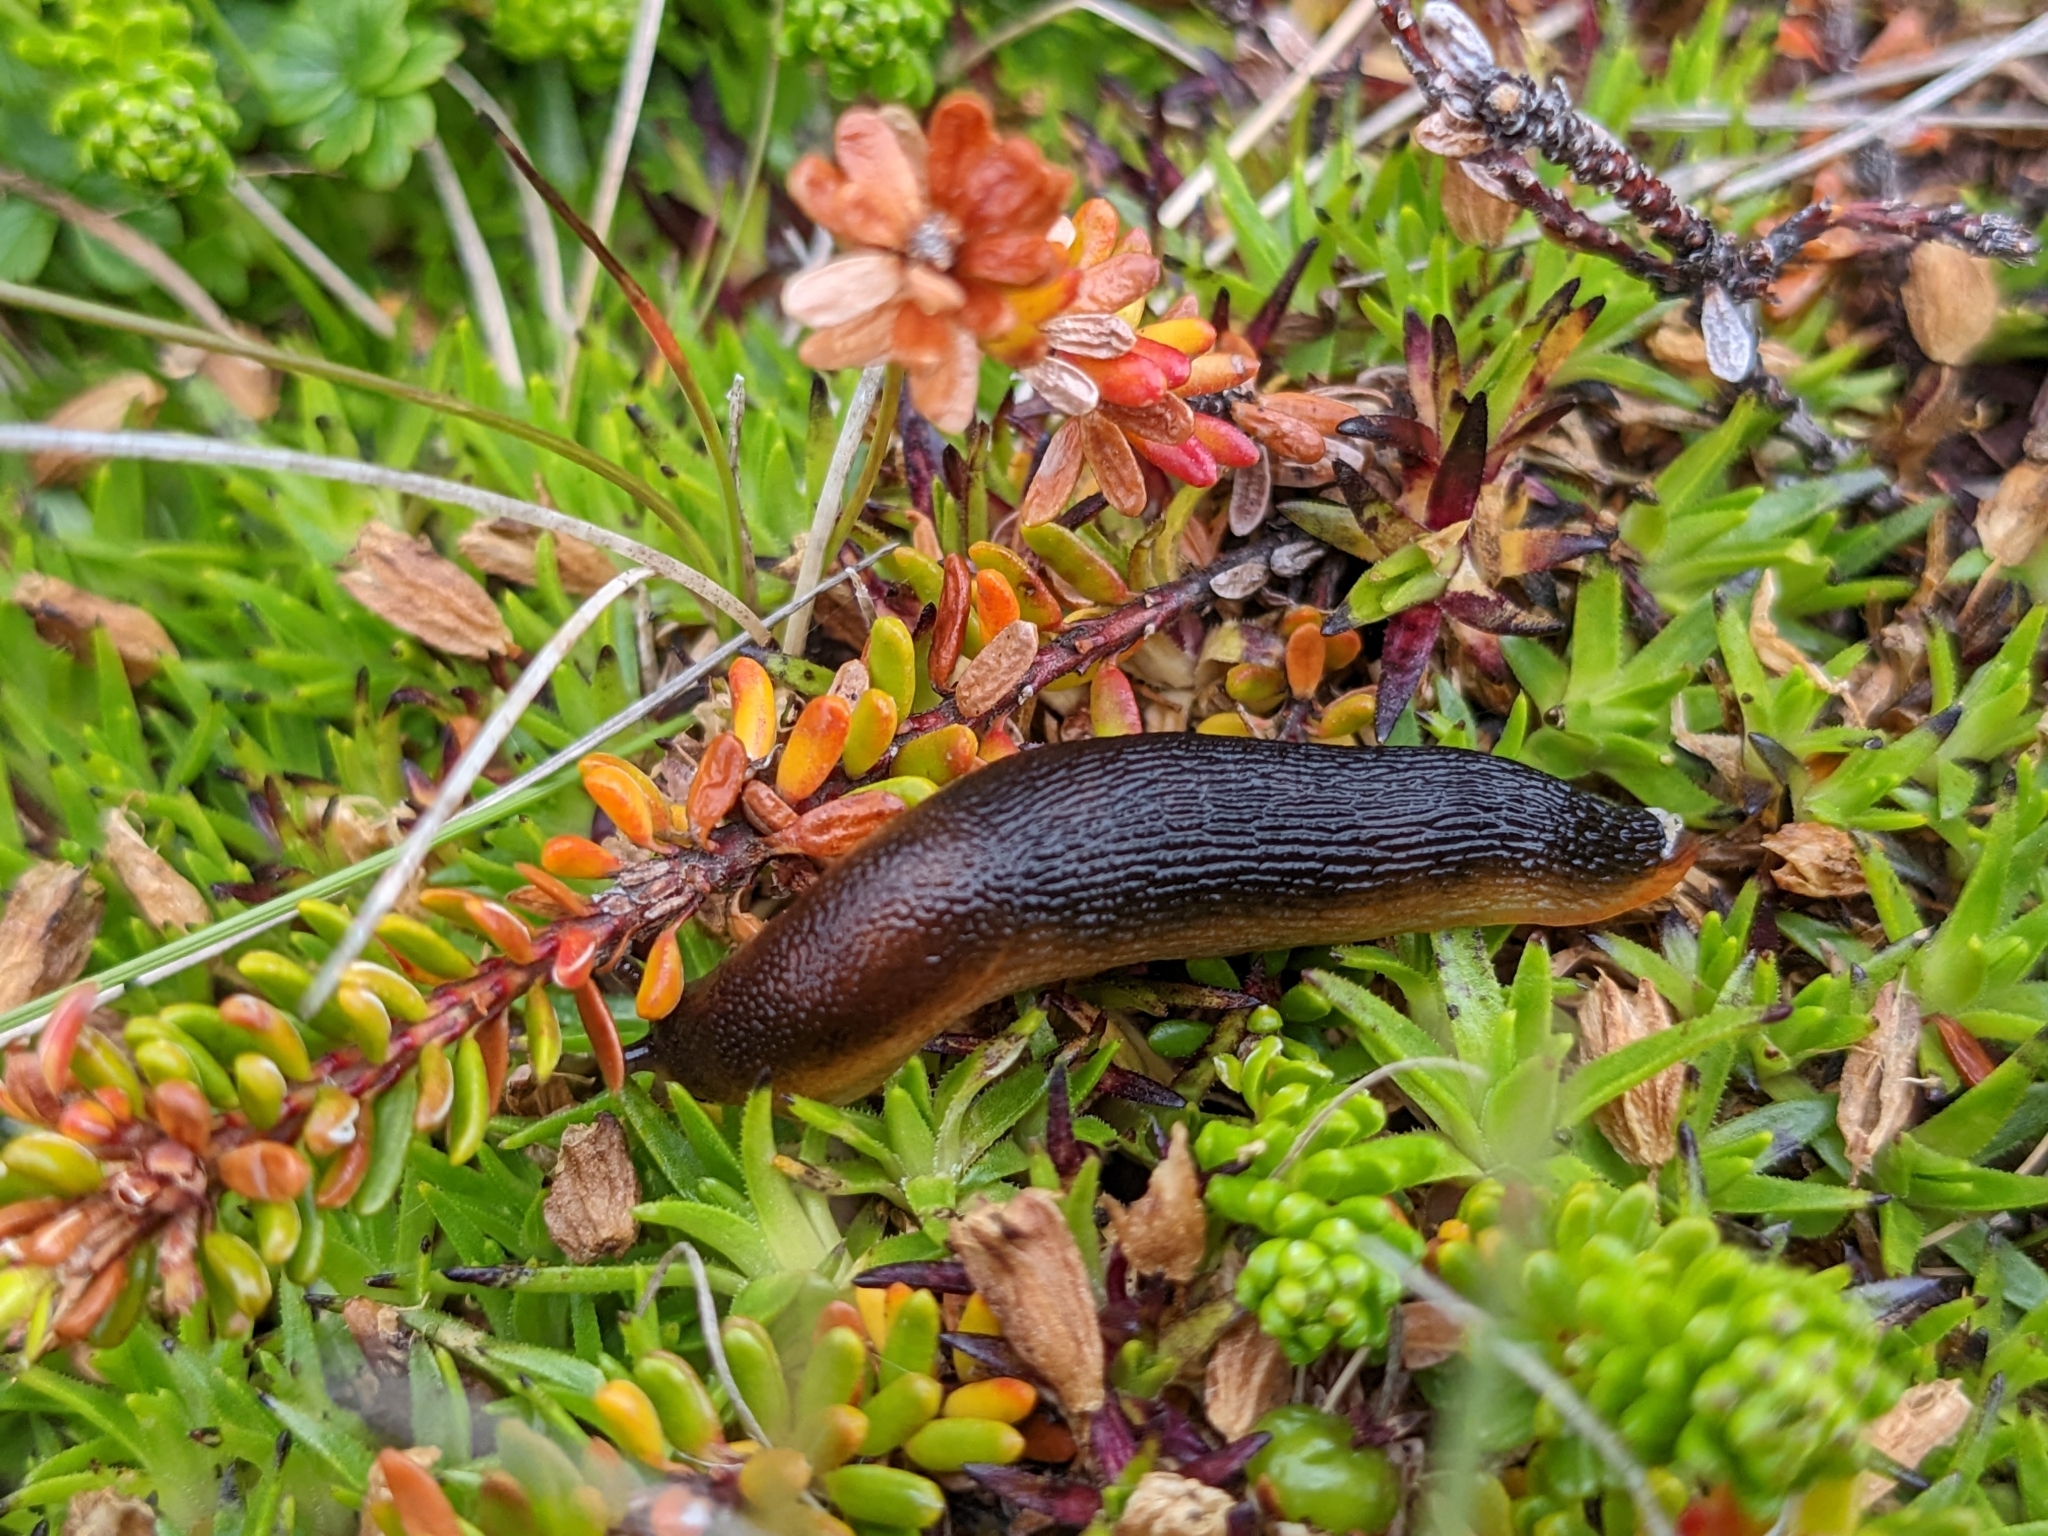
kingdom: Animalia
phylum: Mollusca
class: Gastropoda
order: Stylommatophora
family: Arionidae
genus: Arion
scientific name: Arion
